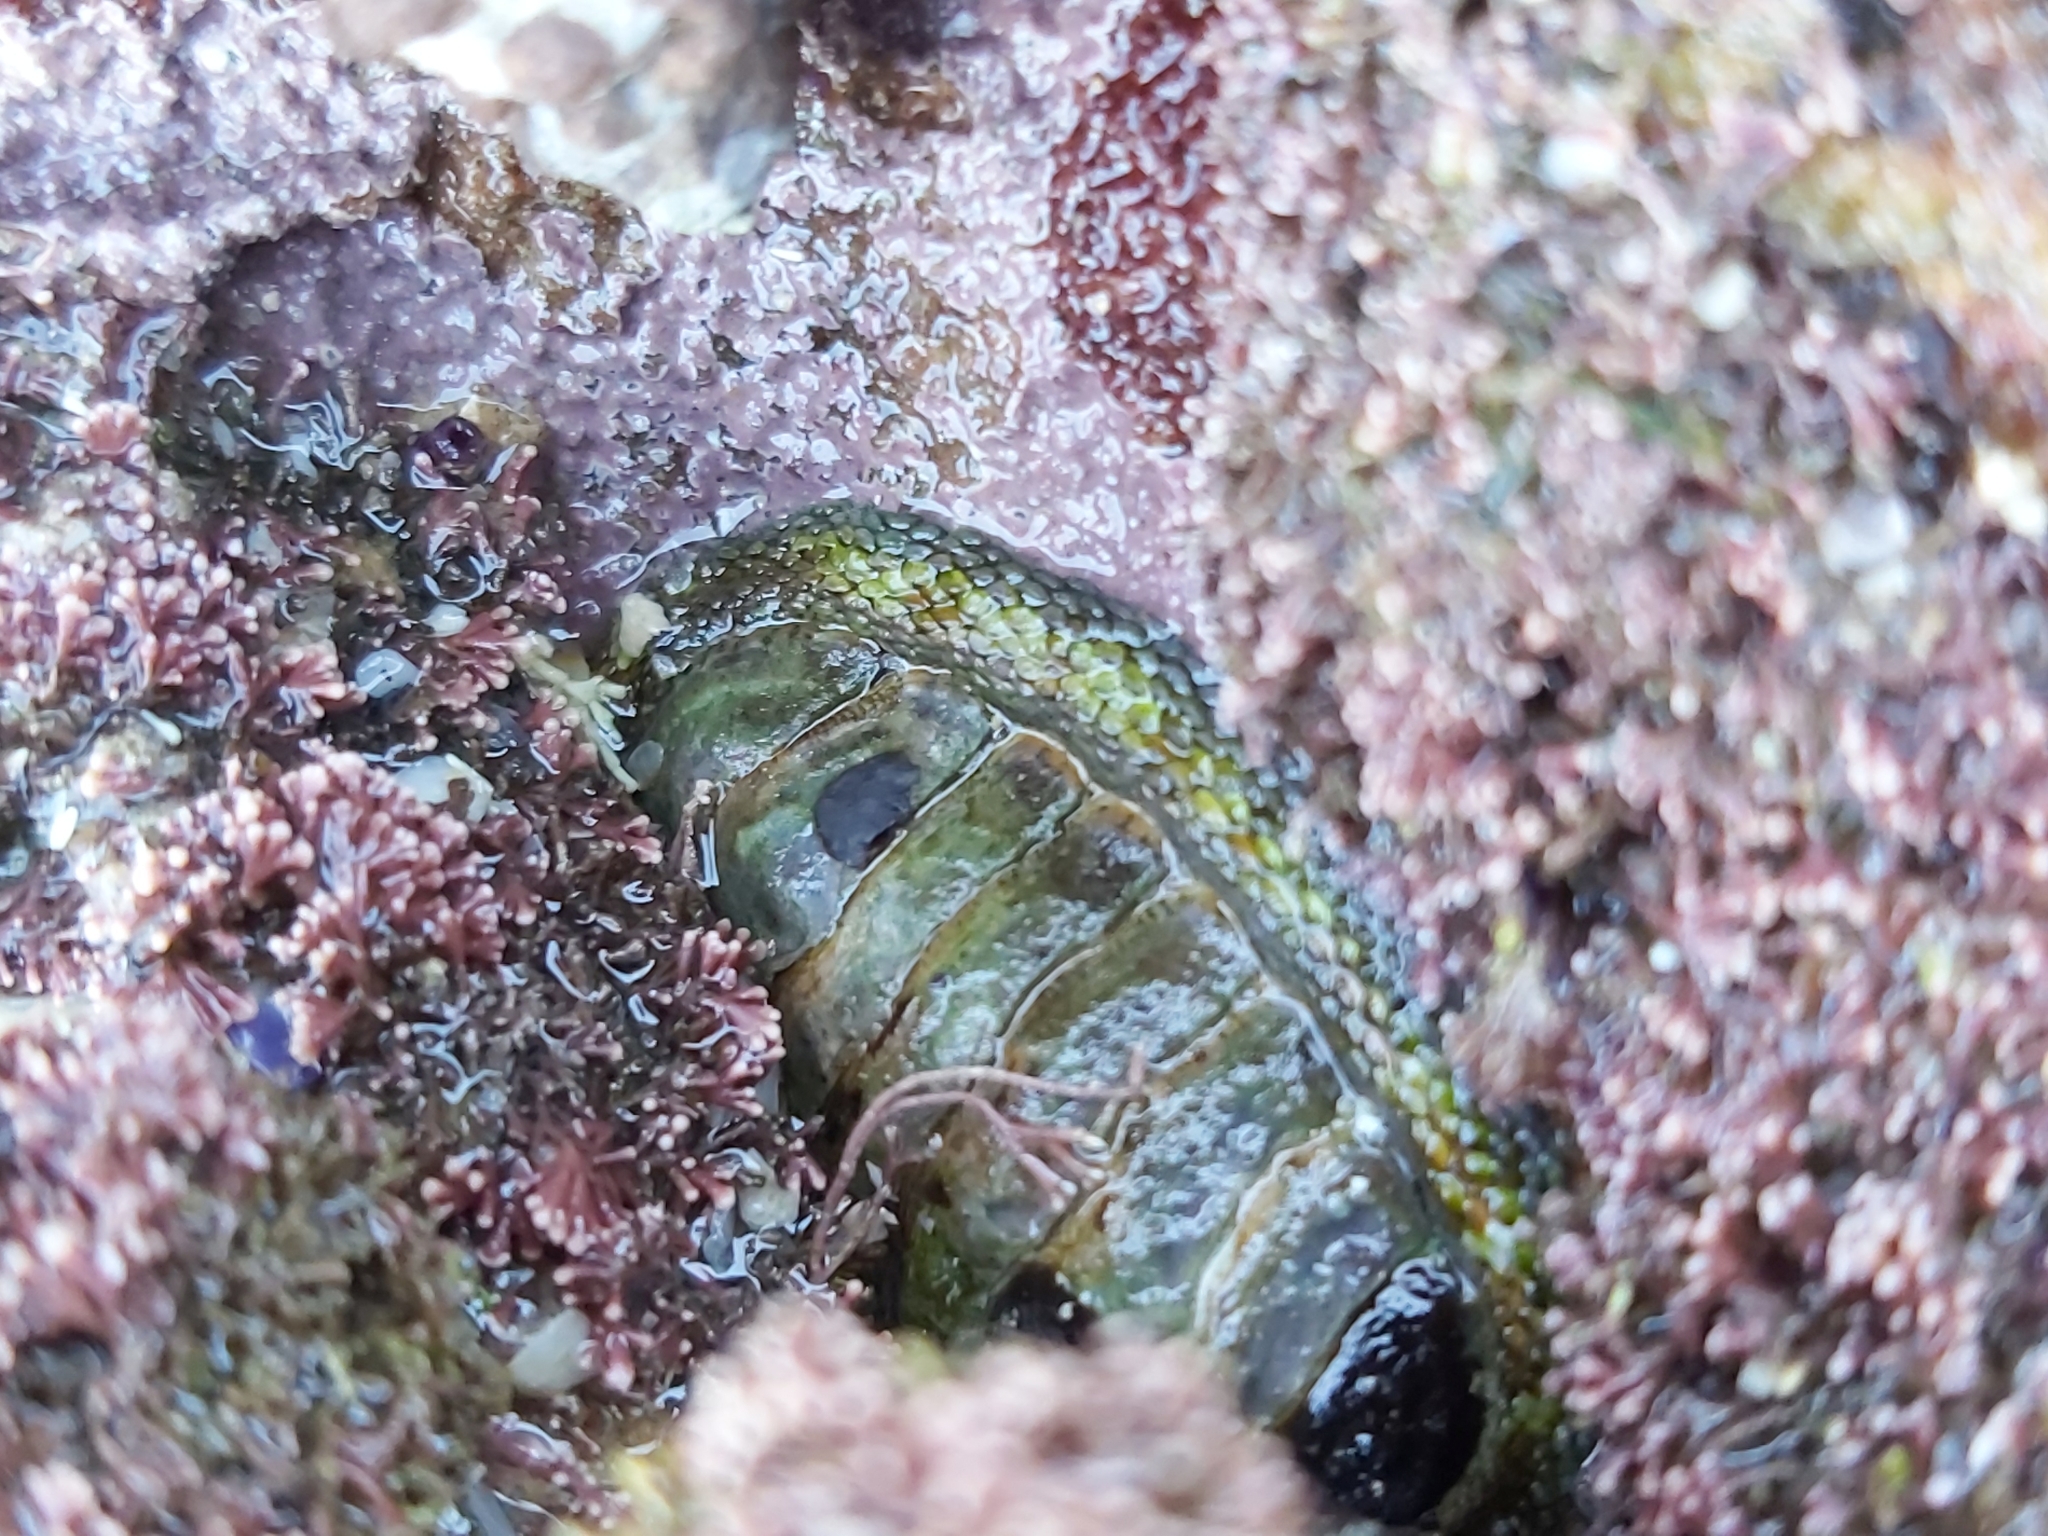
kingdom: Animalia
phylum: Mollusca
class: Polyplacophora
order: Chitonida
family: Chitonidae
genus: Sypharochiton
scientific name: Sypharochiton pelliserpentis
